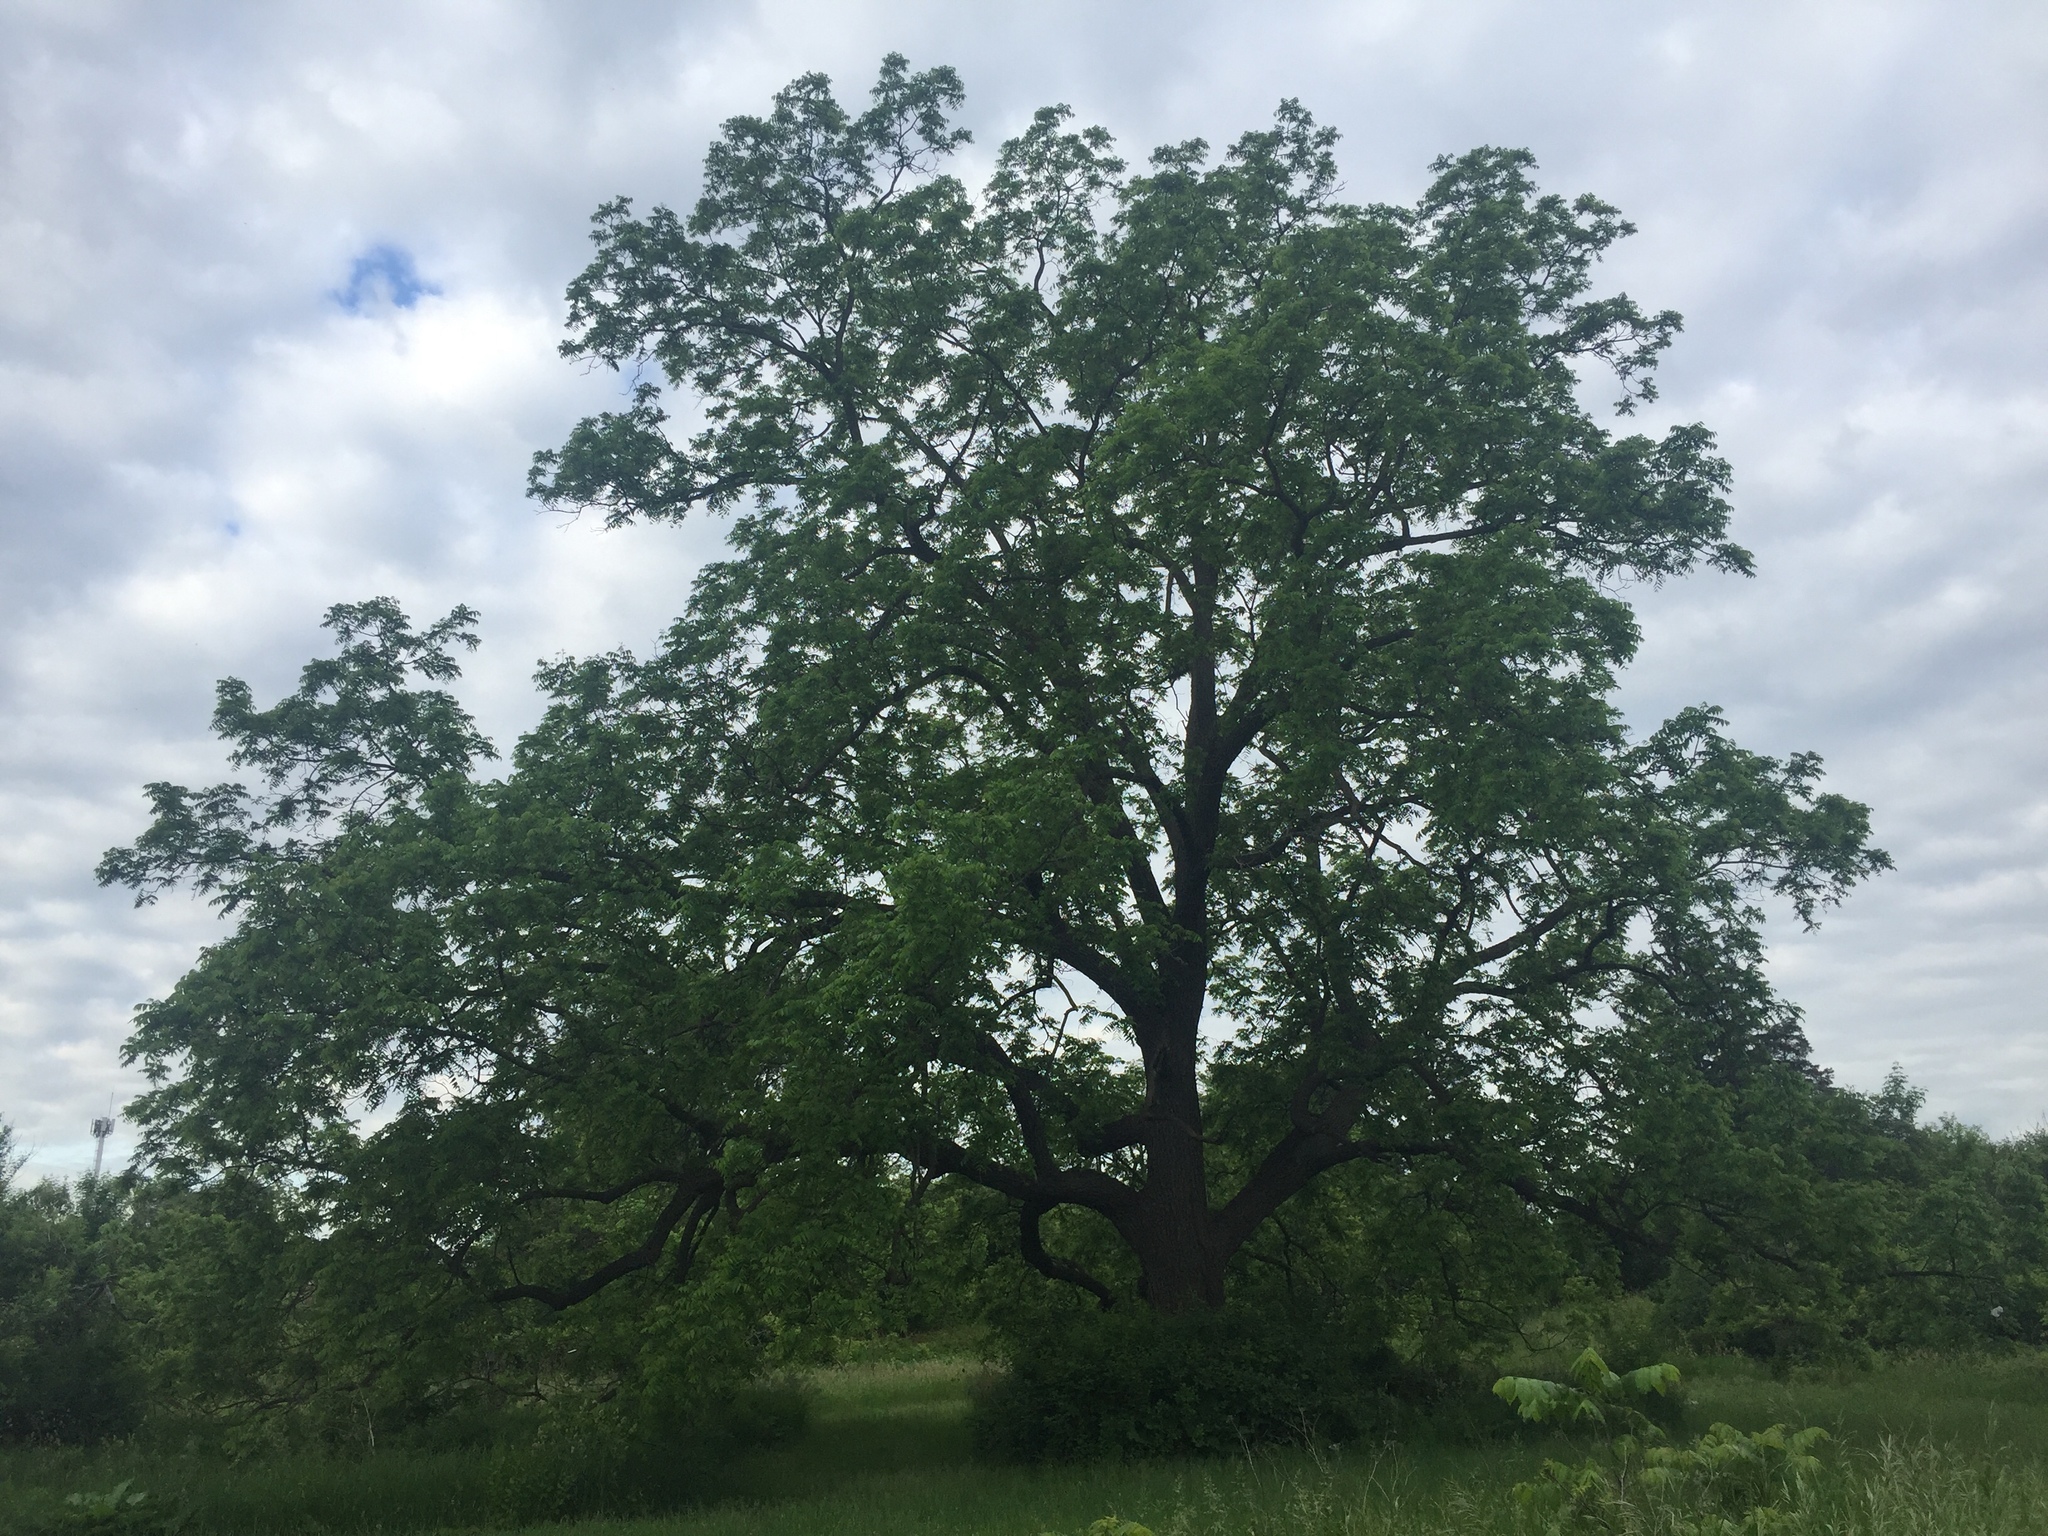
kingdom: Plantae
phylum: Tracheophyta
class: Magnoliopsida
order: Fagales
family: Juglandaceae
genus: Juglans
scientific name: Juglans nigra
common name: Black walnut
